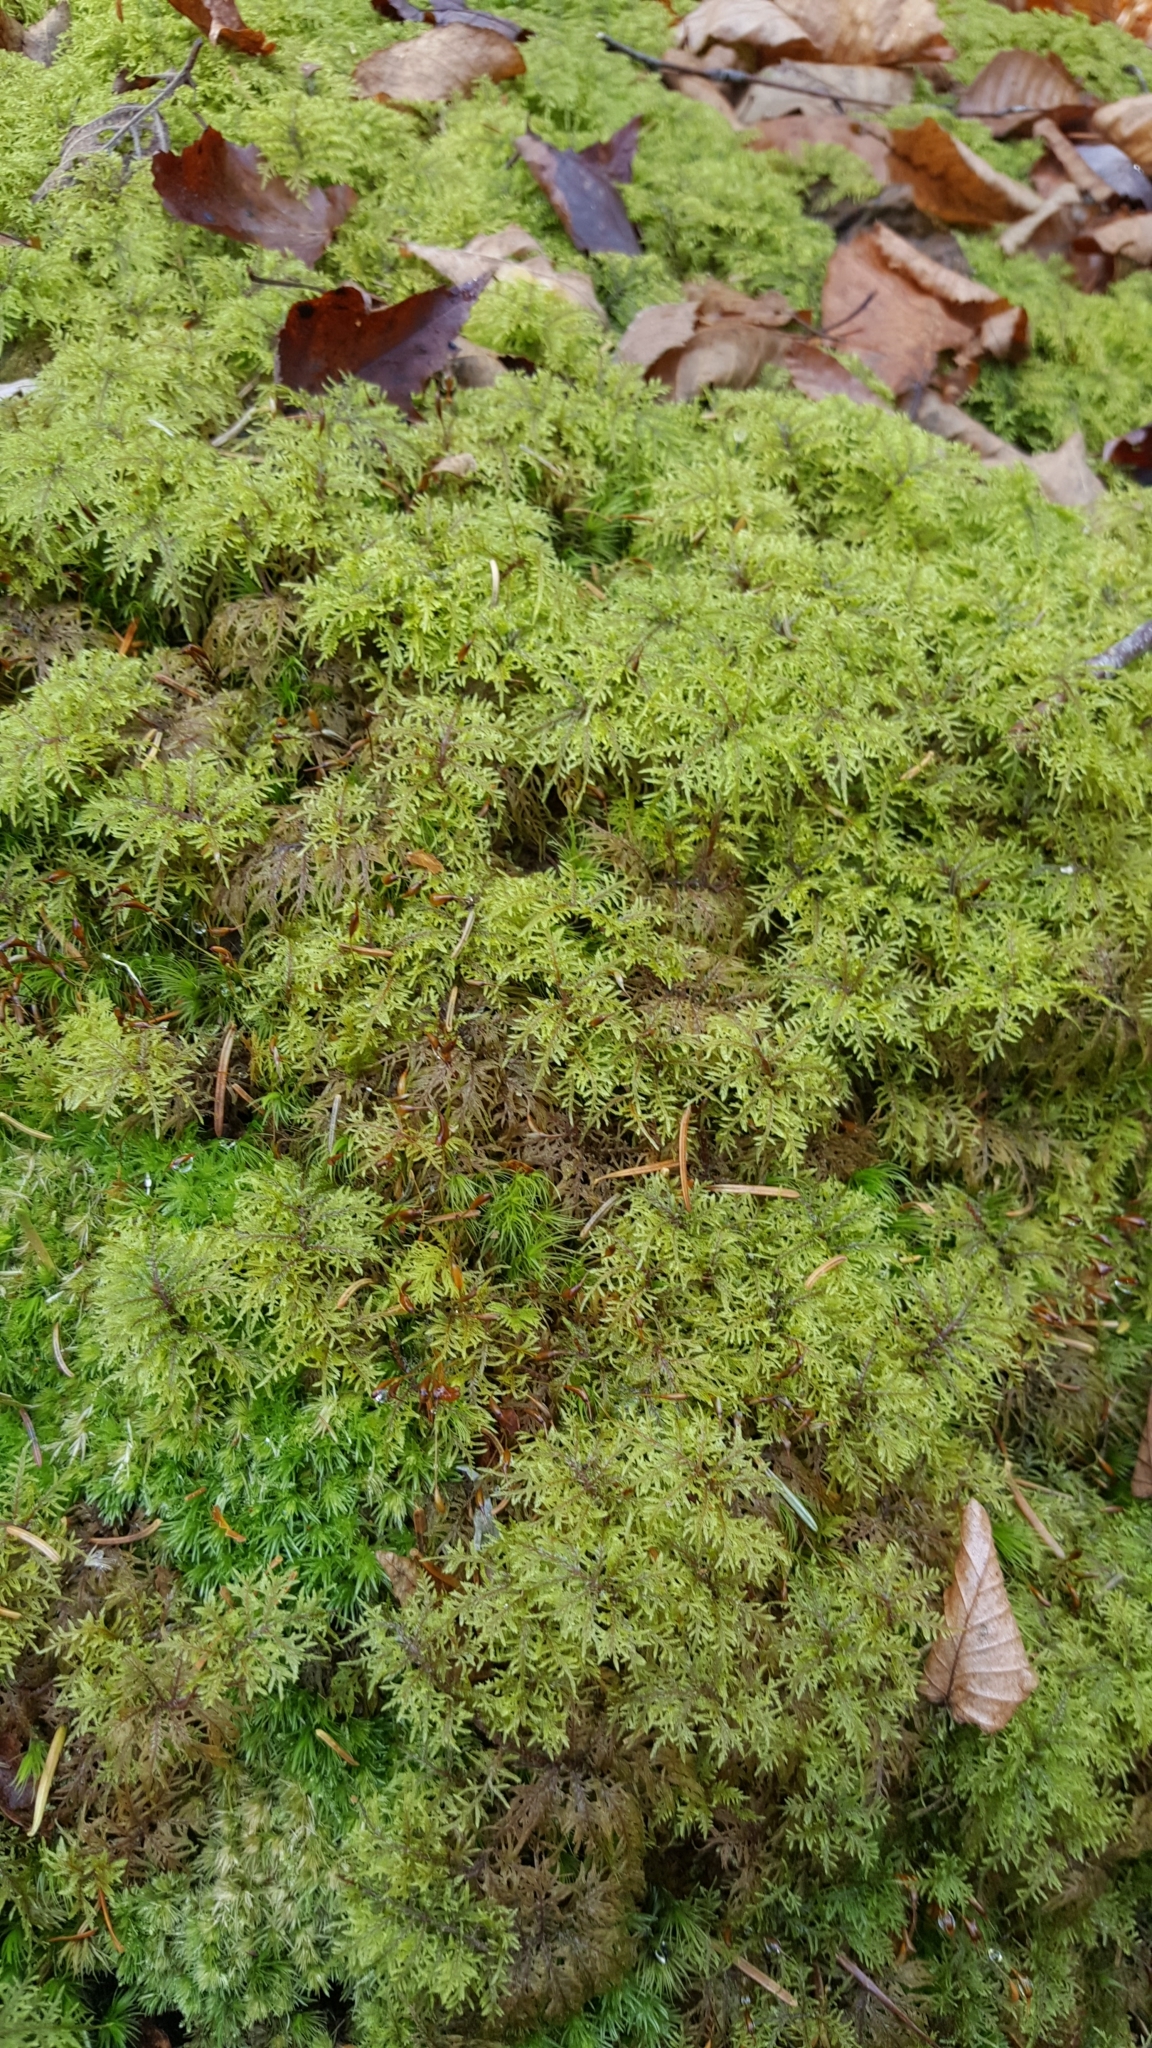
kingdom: Plantae
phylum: Bryophyta
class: Bryopsida
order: Hypnales
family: Hylocomiaceae
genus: Hylocomium
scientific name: Hylocomium splendens
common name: Stairstep moss
